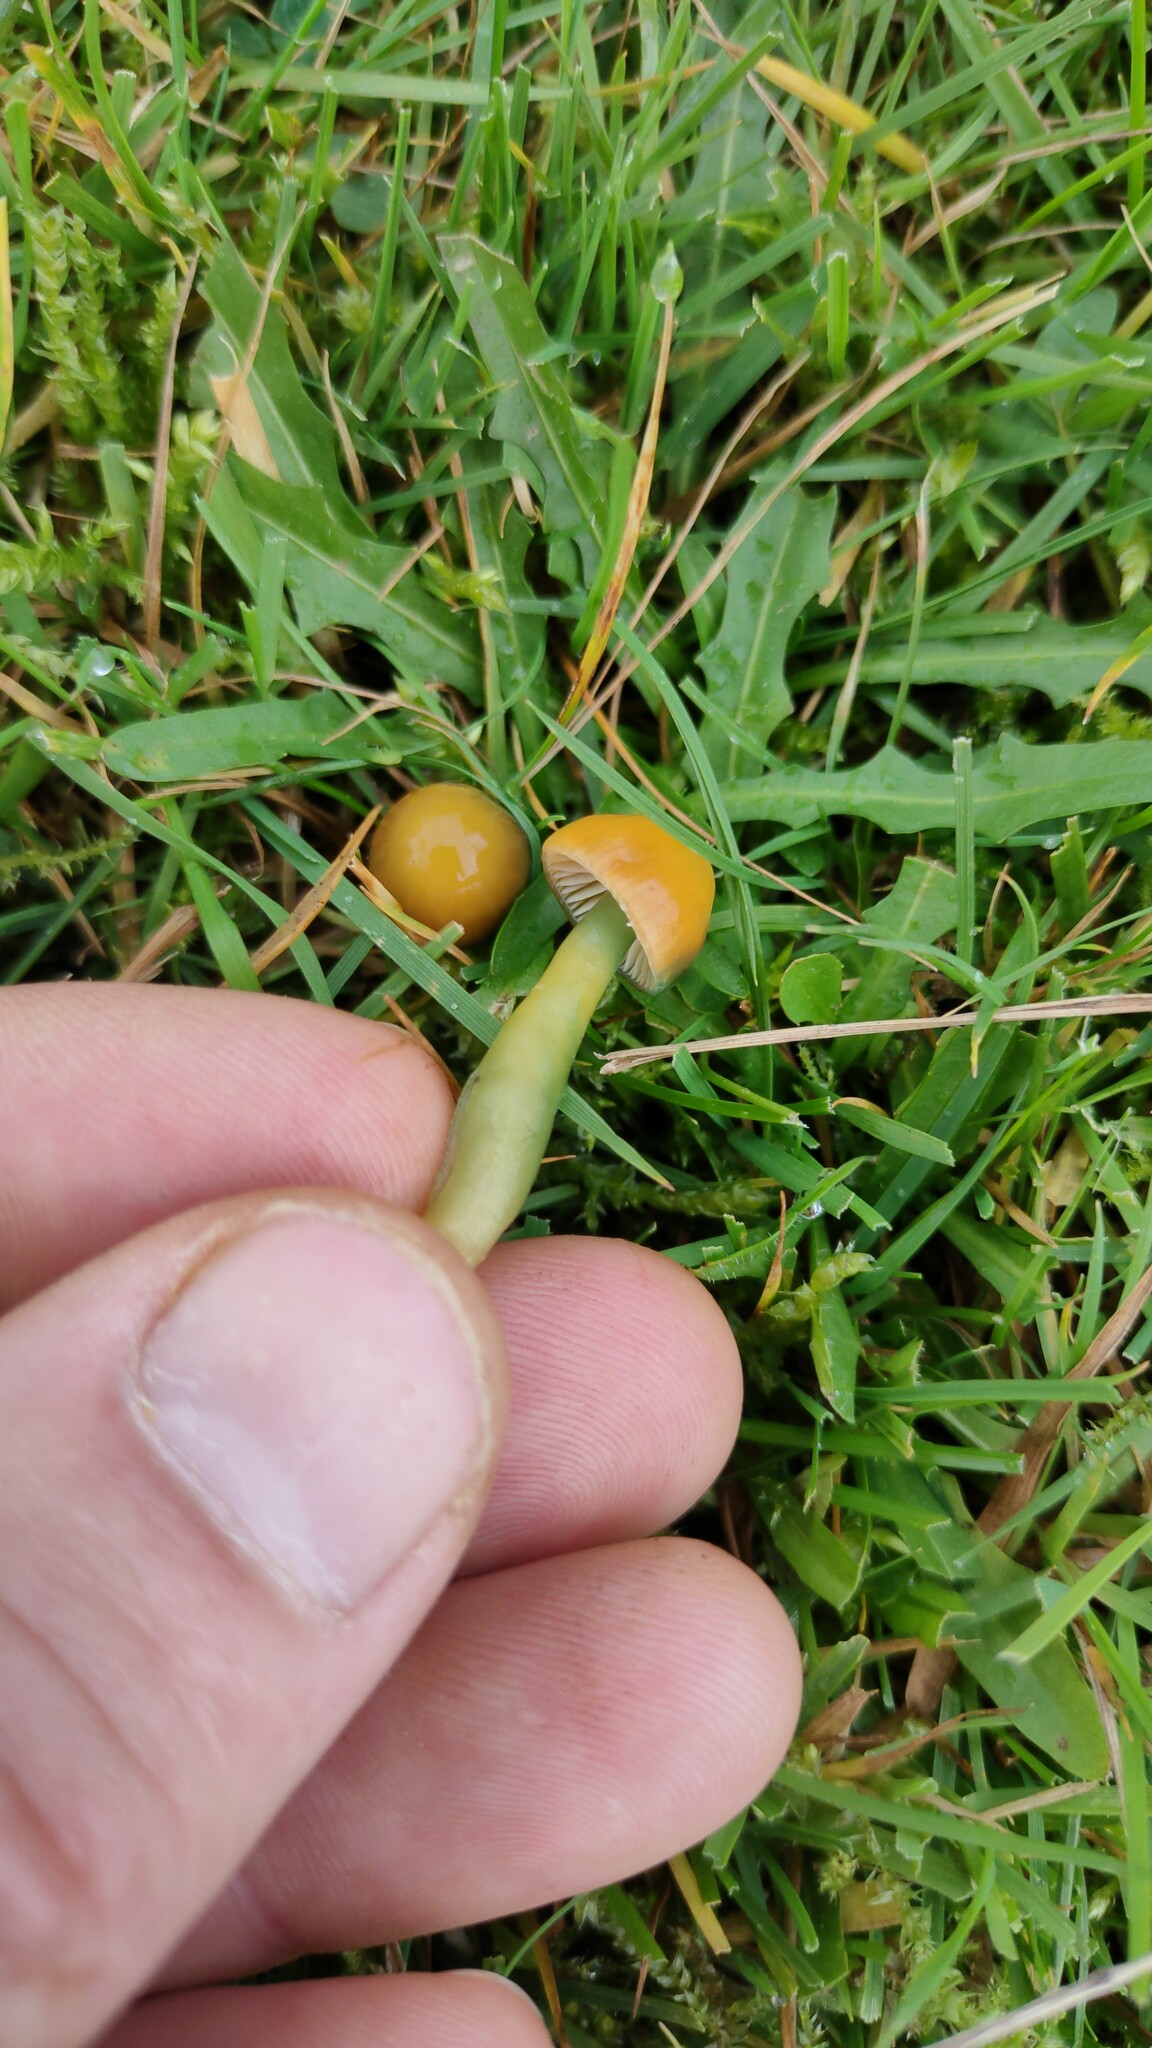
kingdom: Fungi
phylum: Basidiomycota
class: Agaricomycetes
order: Agaricales
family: Hygrophoraceae
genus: Gliophorus
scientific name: Gliophorus psittacinus
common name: Parrot wax-cap
